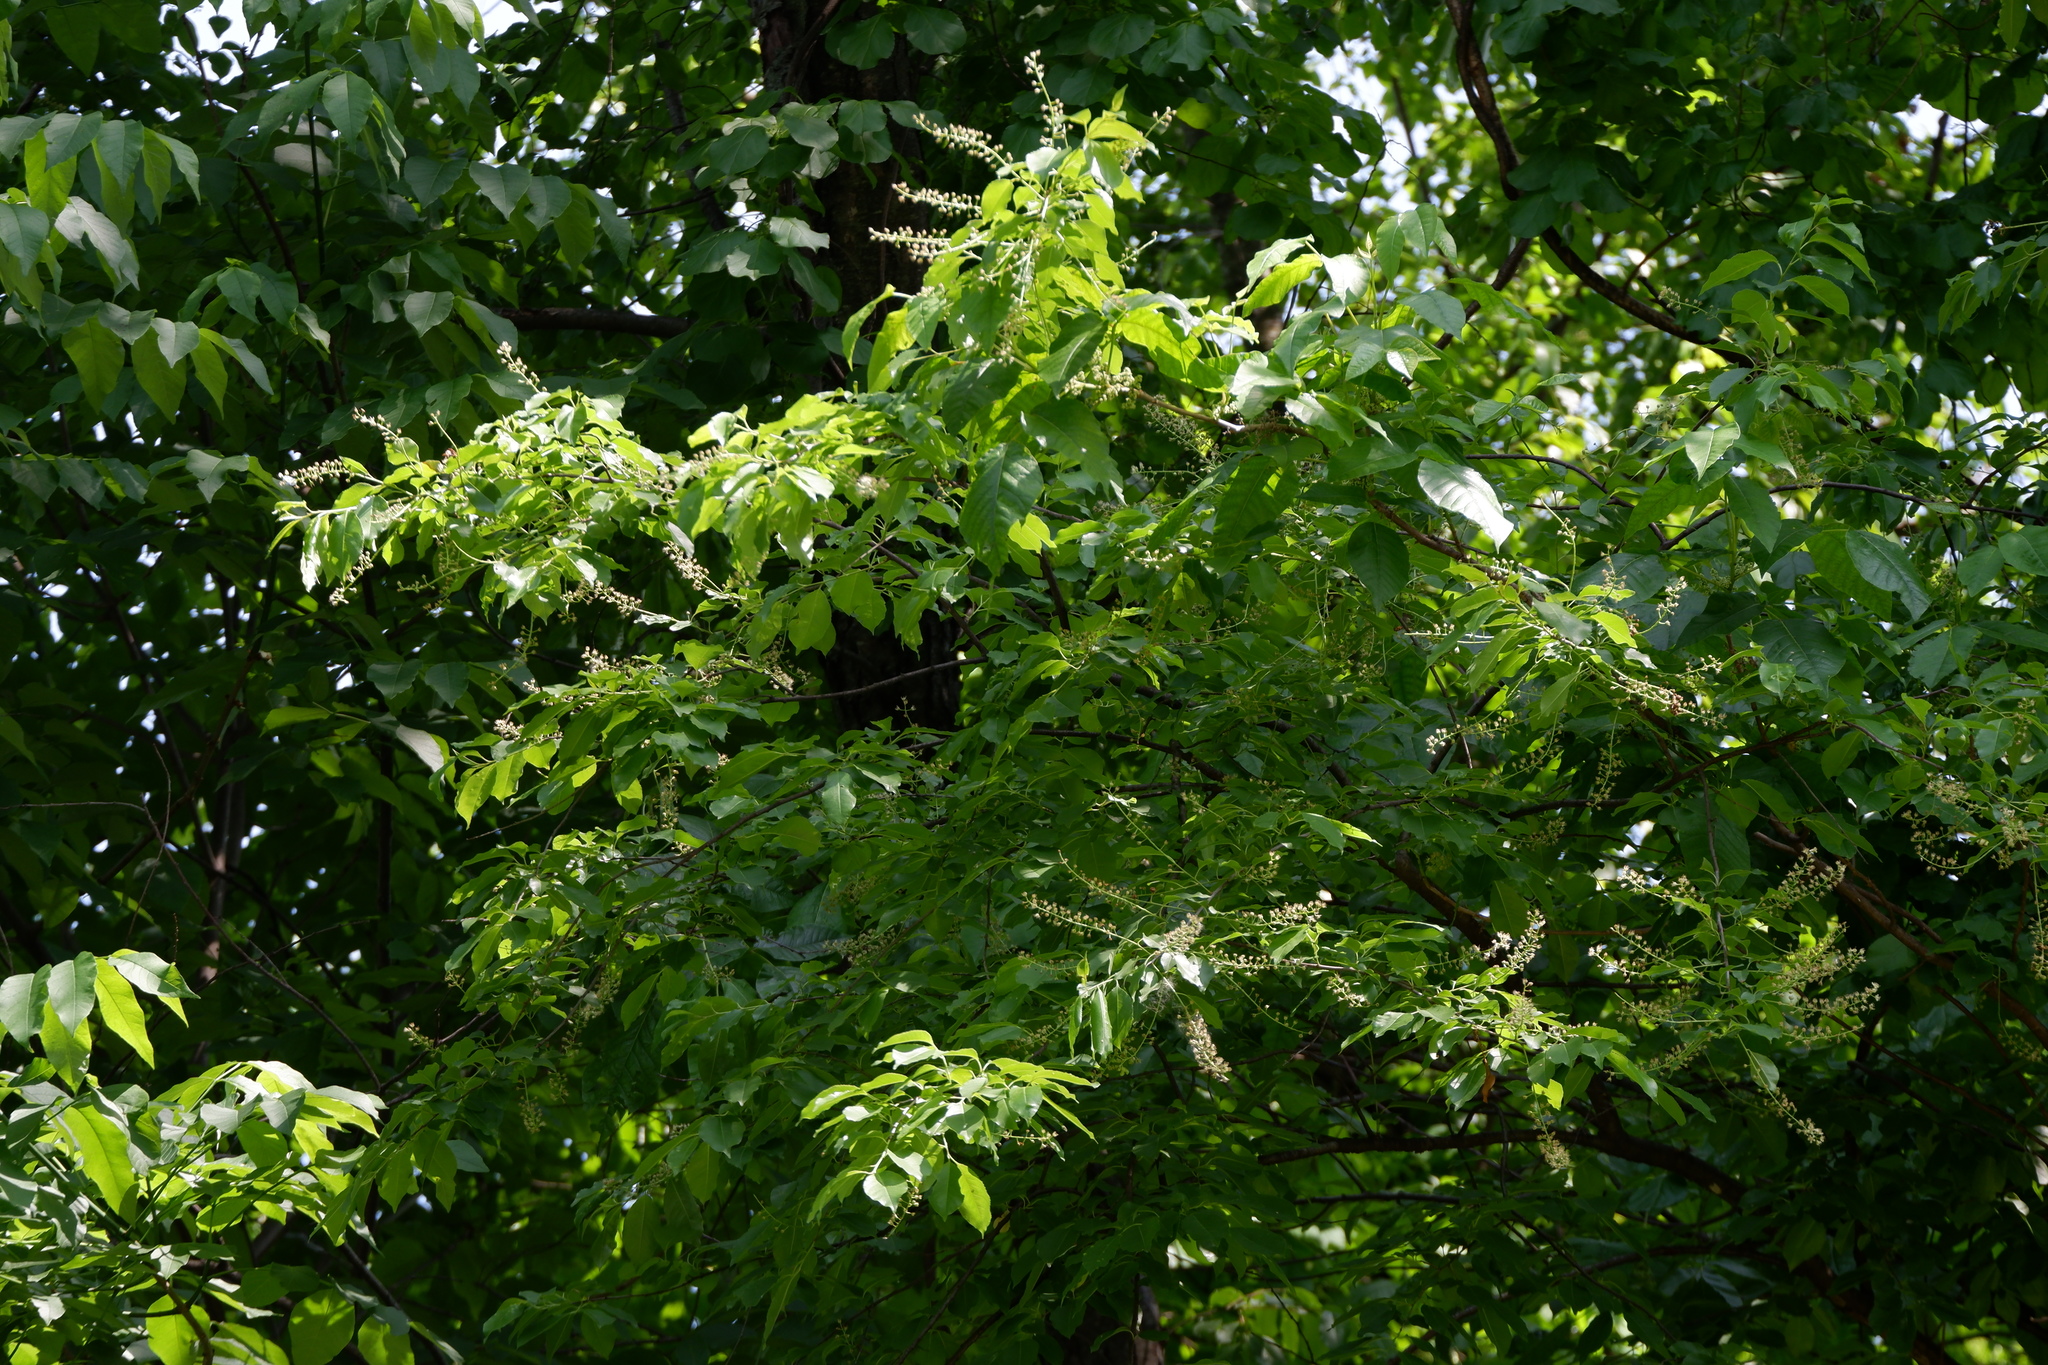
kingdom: Plantae
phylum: Tracheophyta
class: Magnoliopsida
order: Rosales
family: Rosaceae
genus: Prunus
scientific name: Prunus serotina
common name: Black cherry
